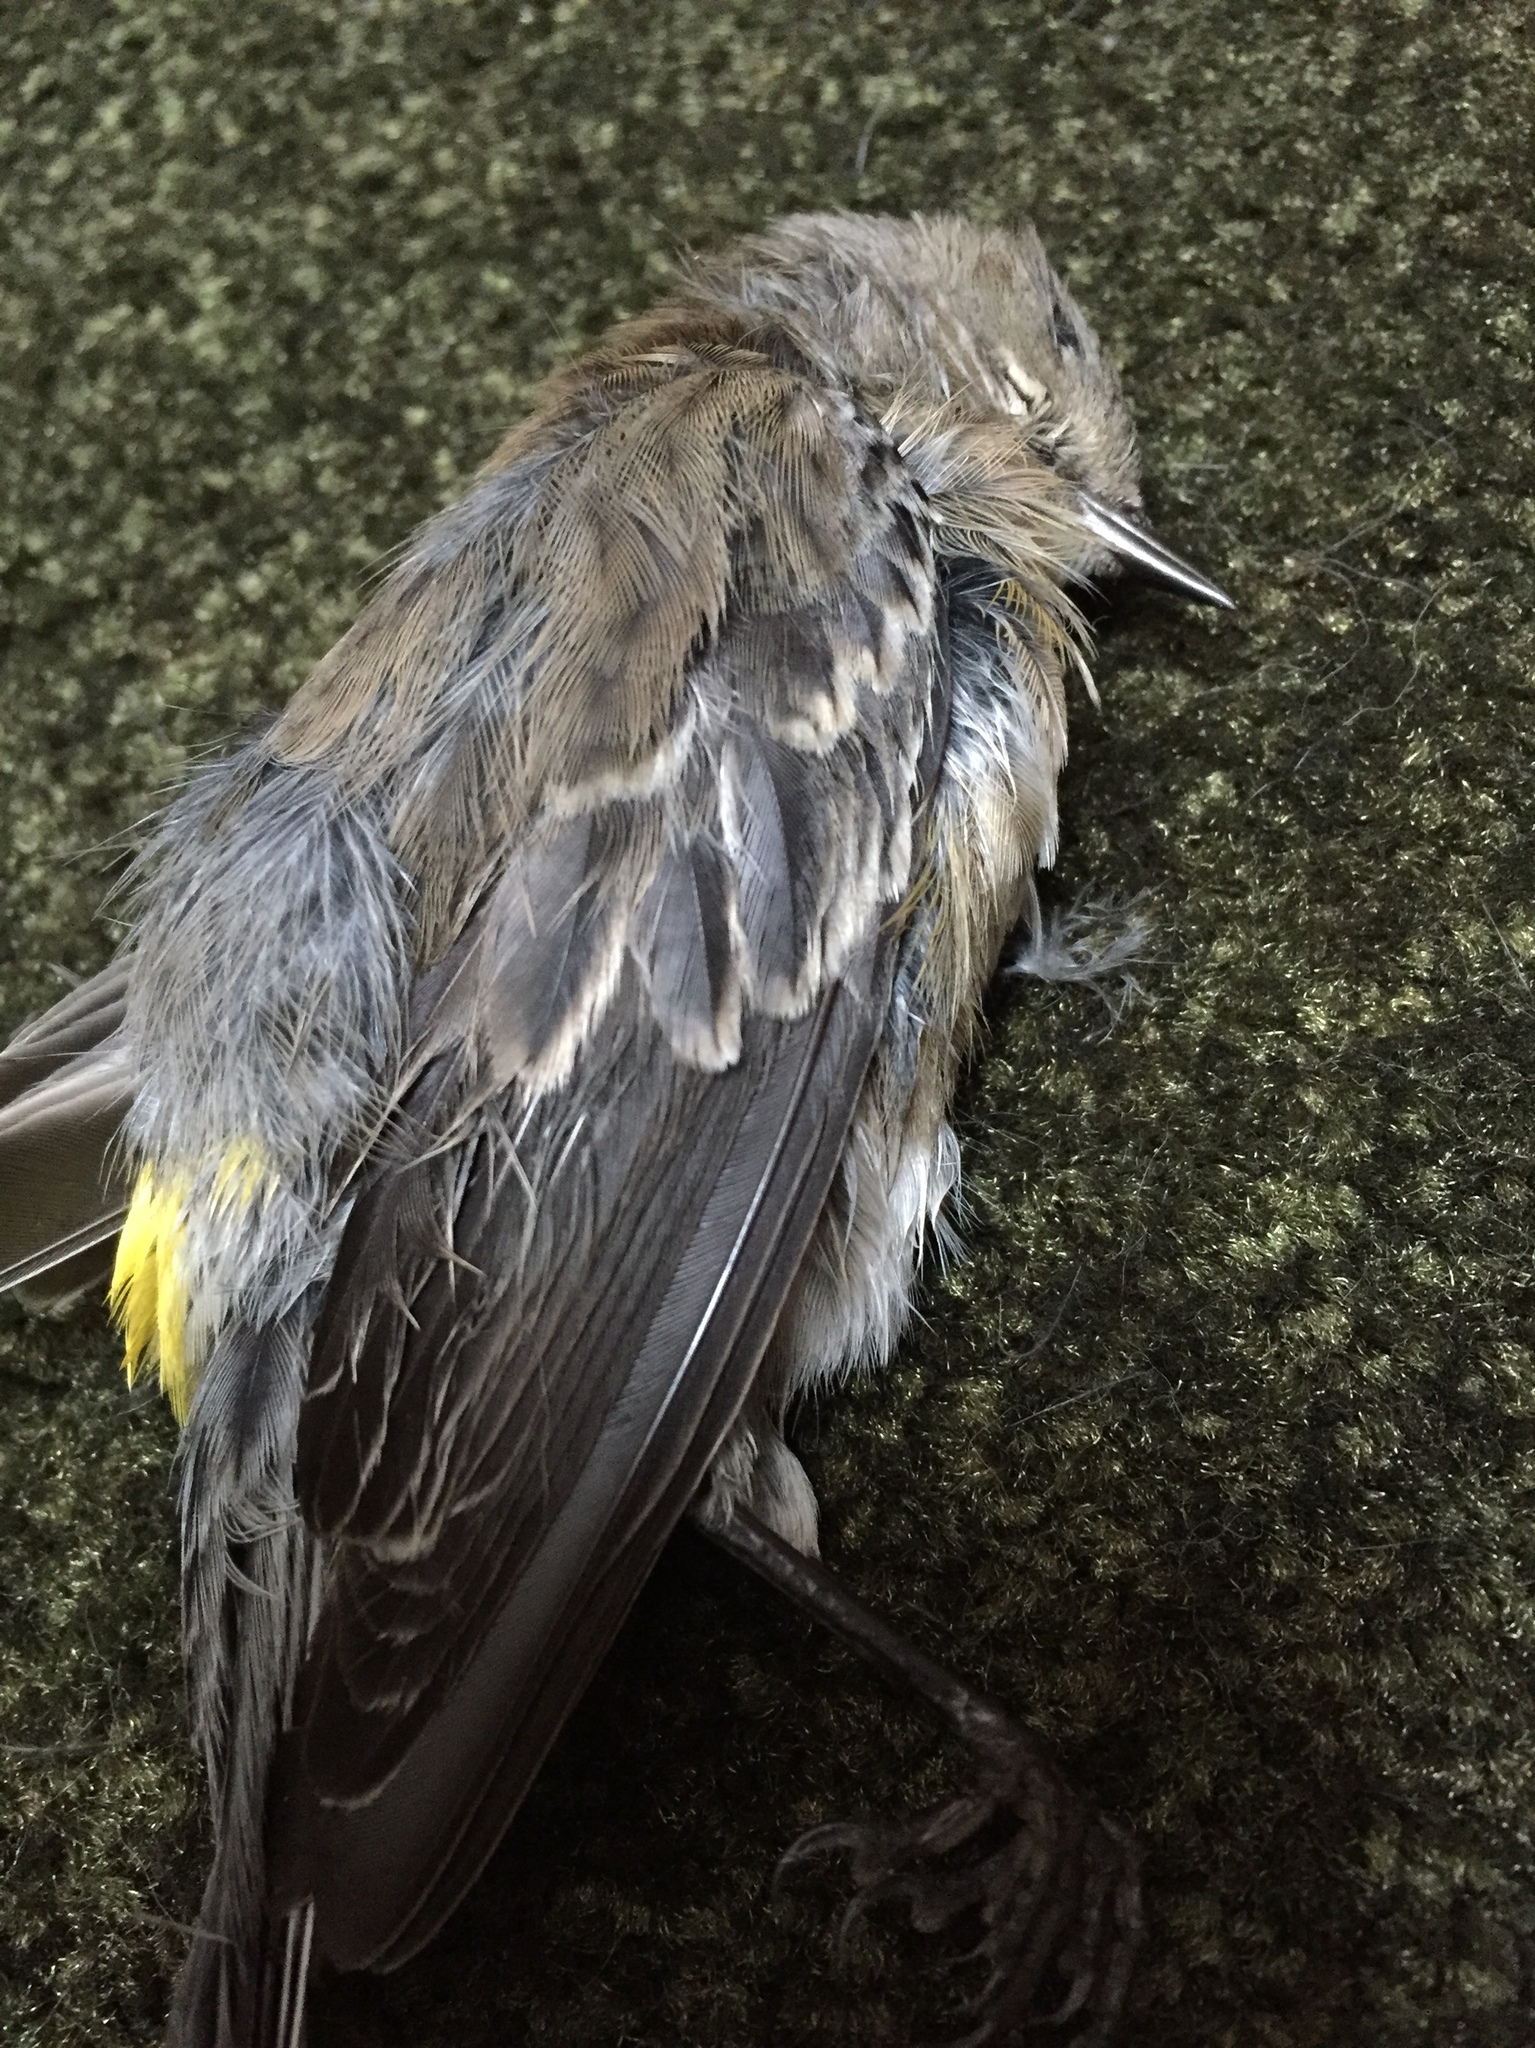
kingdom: Animalia
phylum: Chordata
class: Aves
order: Passeriformes
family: Parulidae
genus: Setophaga
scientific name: Setophaga coronata
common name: Myrtle warbler
